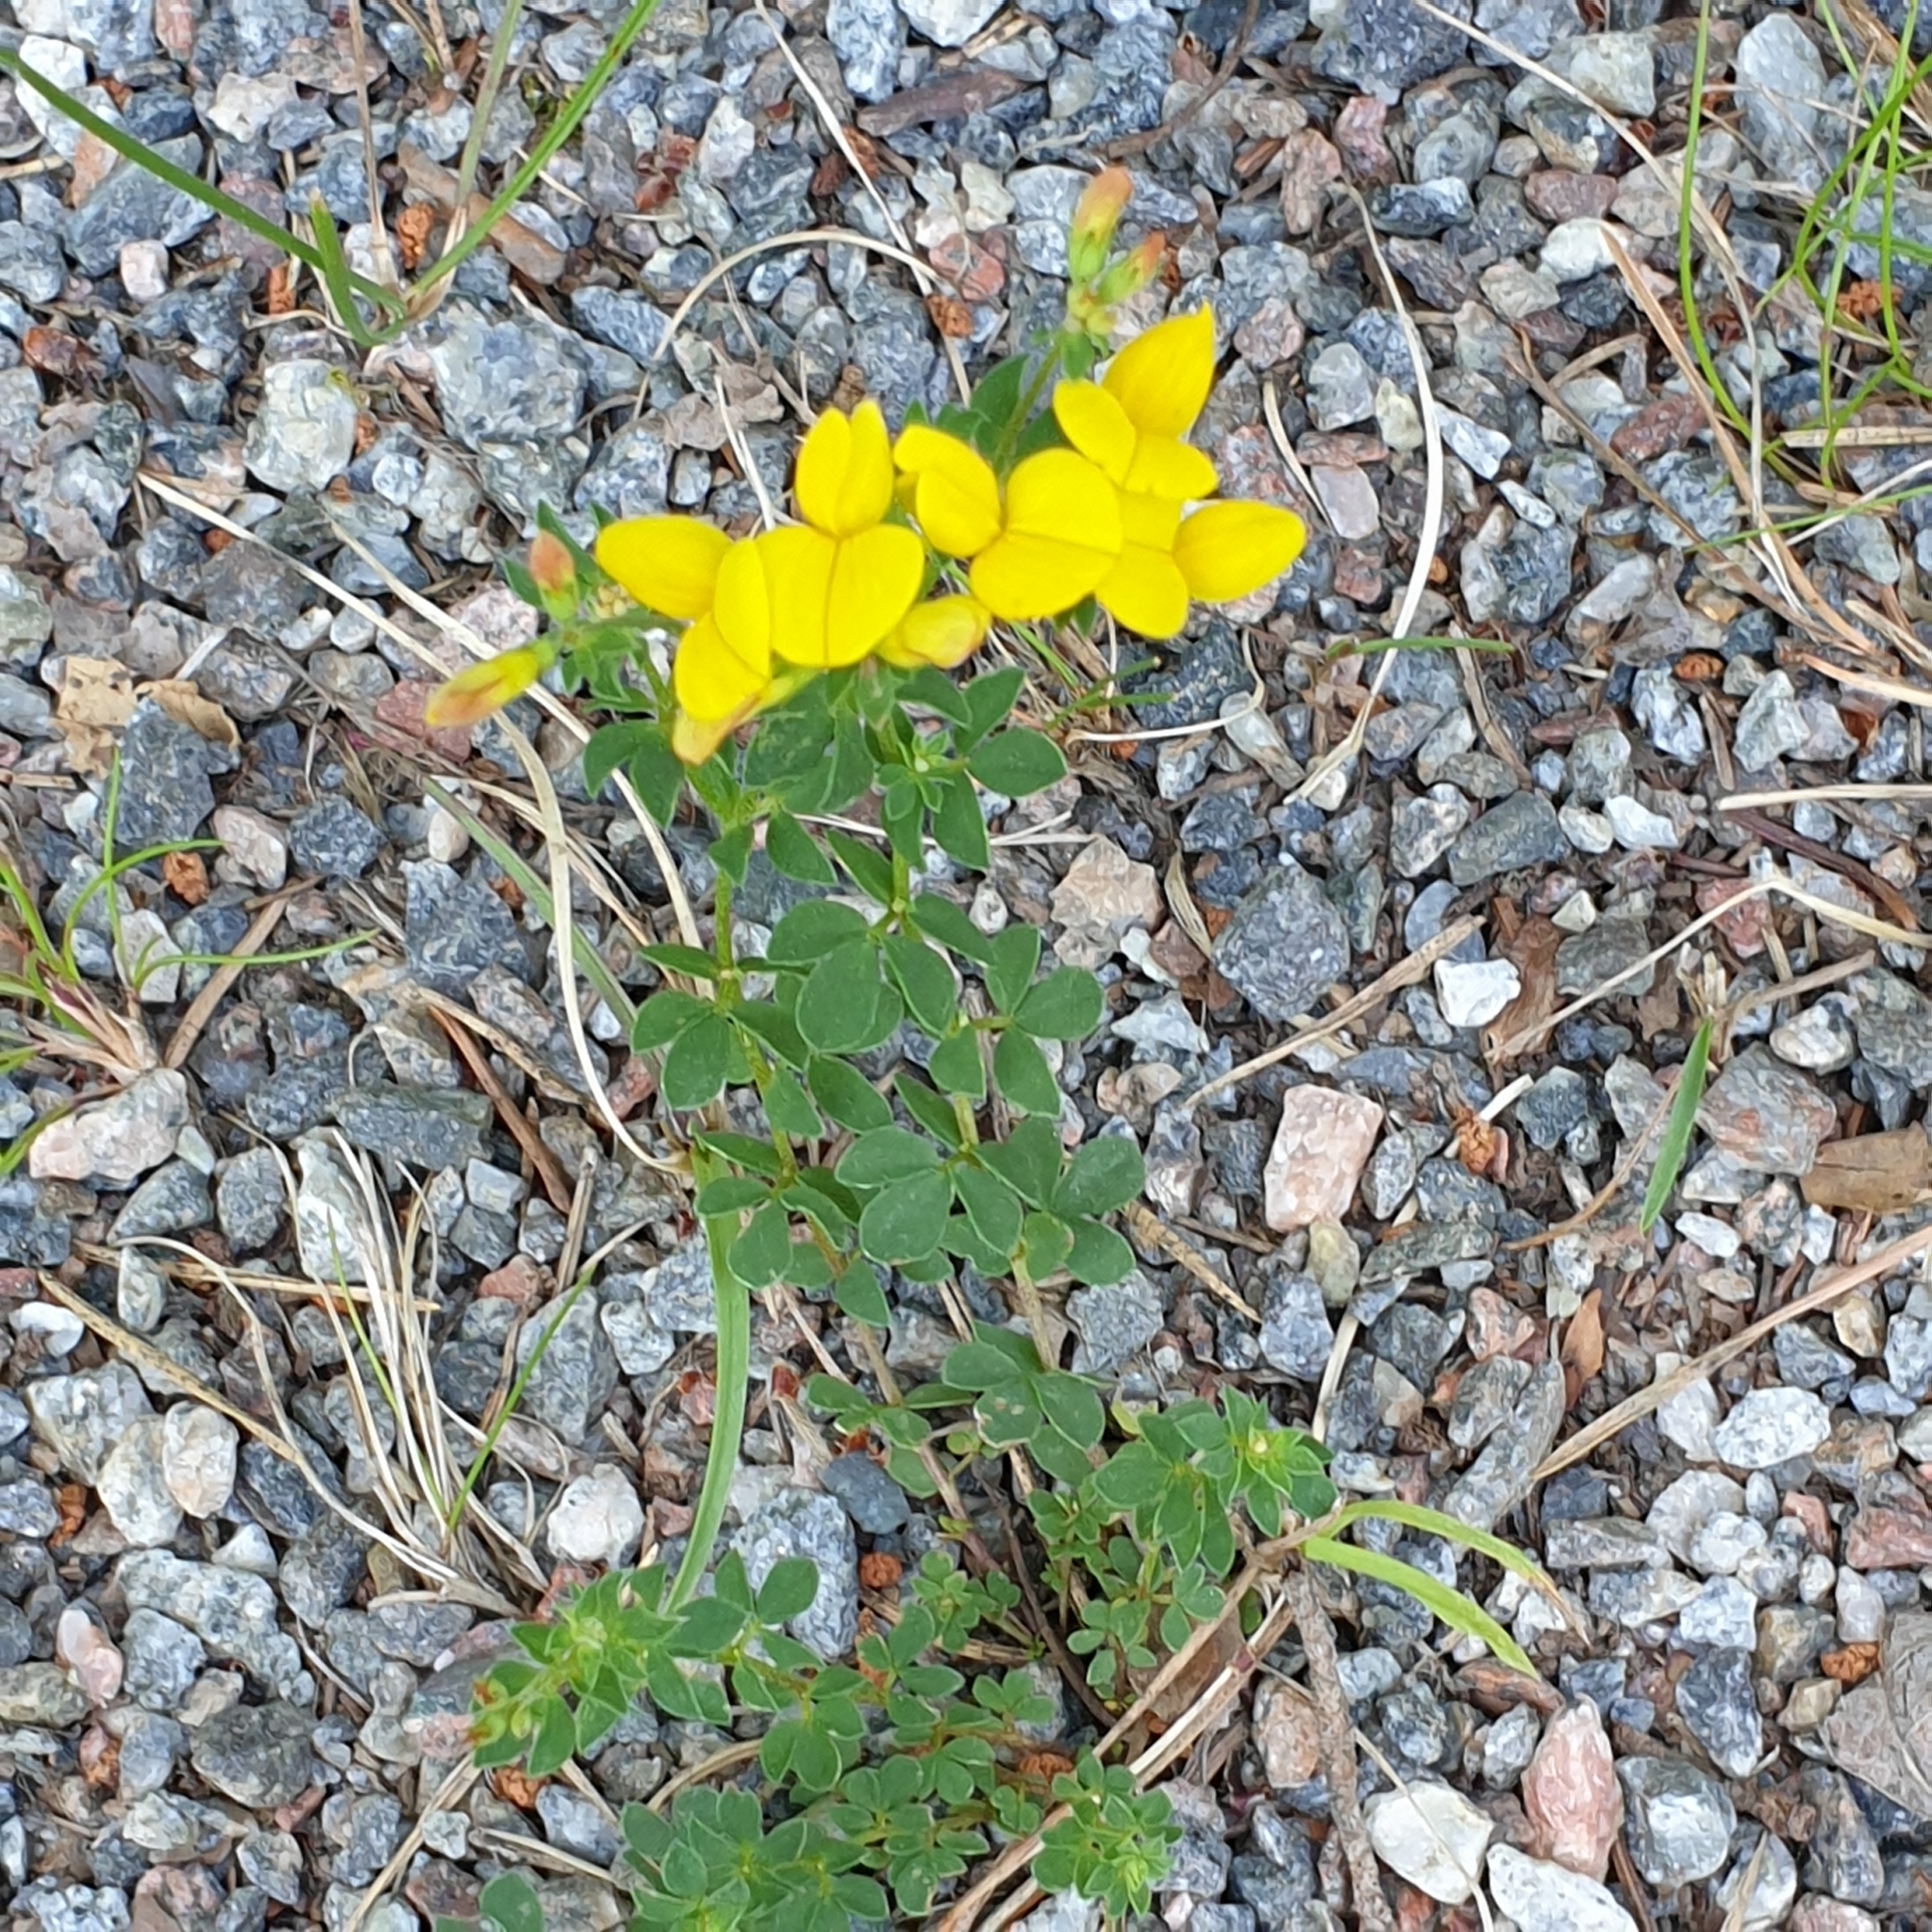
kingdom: Plantae
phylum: Tracheophyta
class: Magnoliopsida
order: Fabales
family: Fabaceae
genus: Lotus
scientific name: Lotus corniculatus
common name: Common bird's-foot-trefoil
